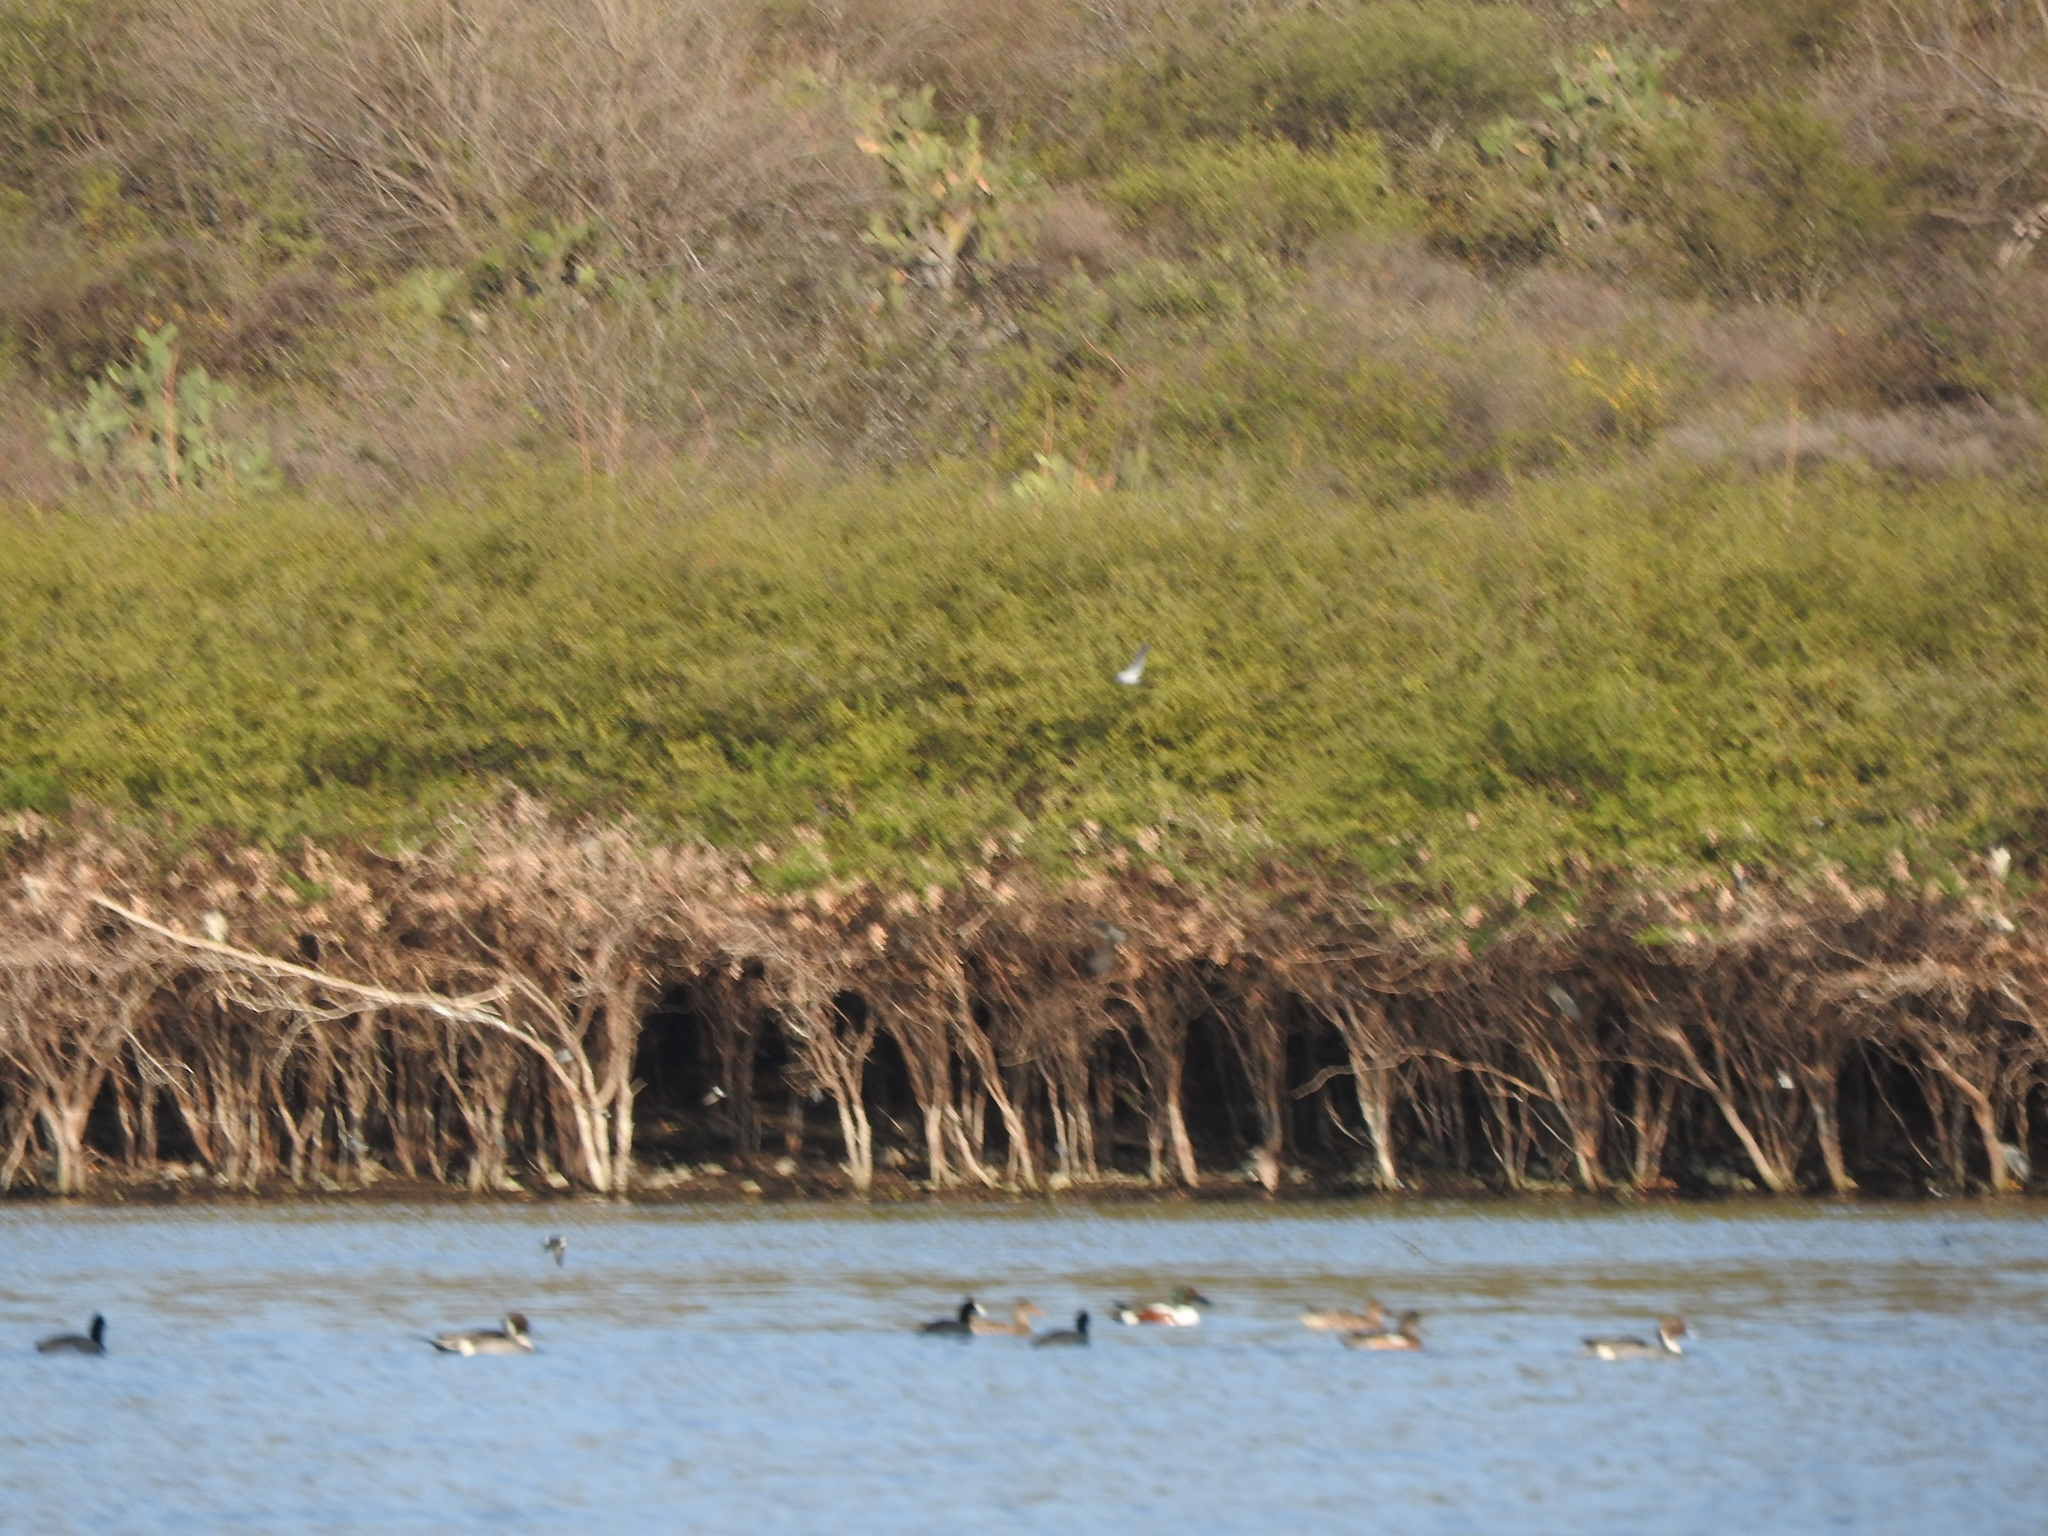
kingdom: Animalia
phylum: Chordata
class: Aves
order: Anseriformes
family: Anatidae
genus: Spatula
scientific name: Spatula clypeata
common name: Northern shoveler
